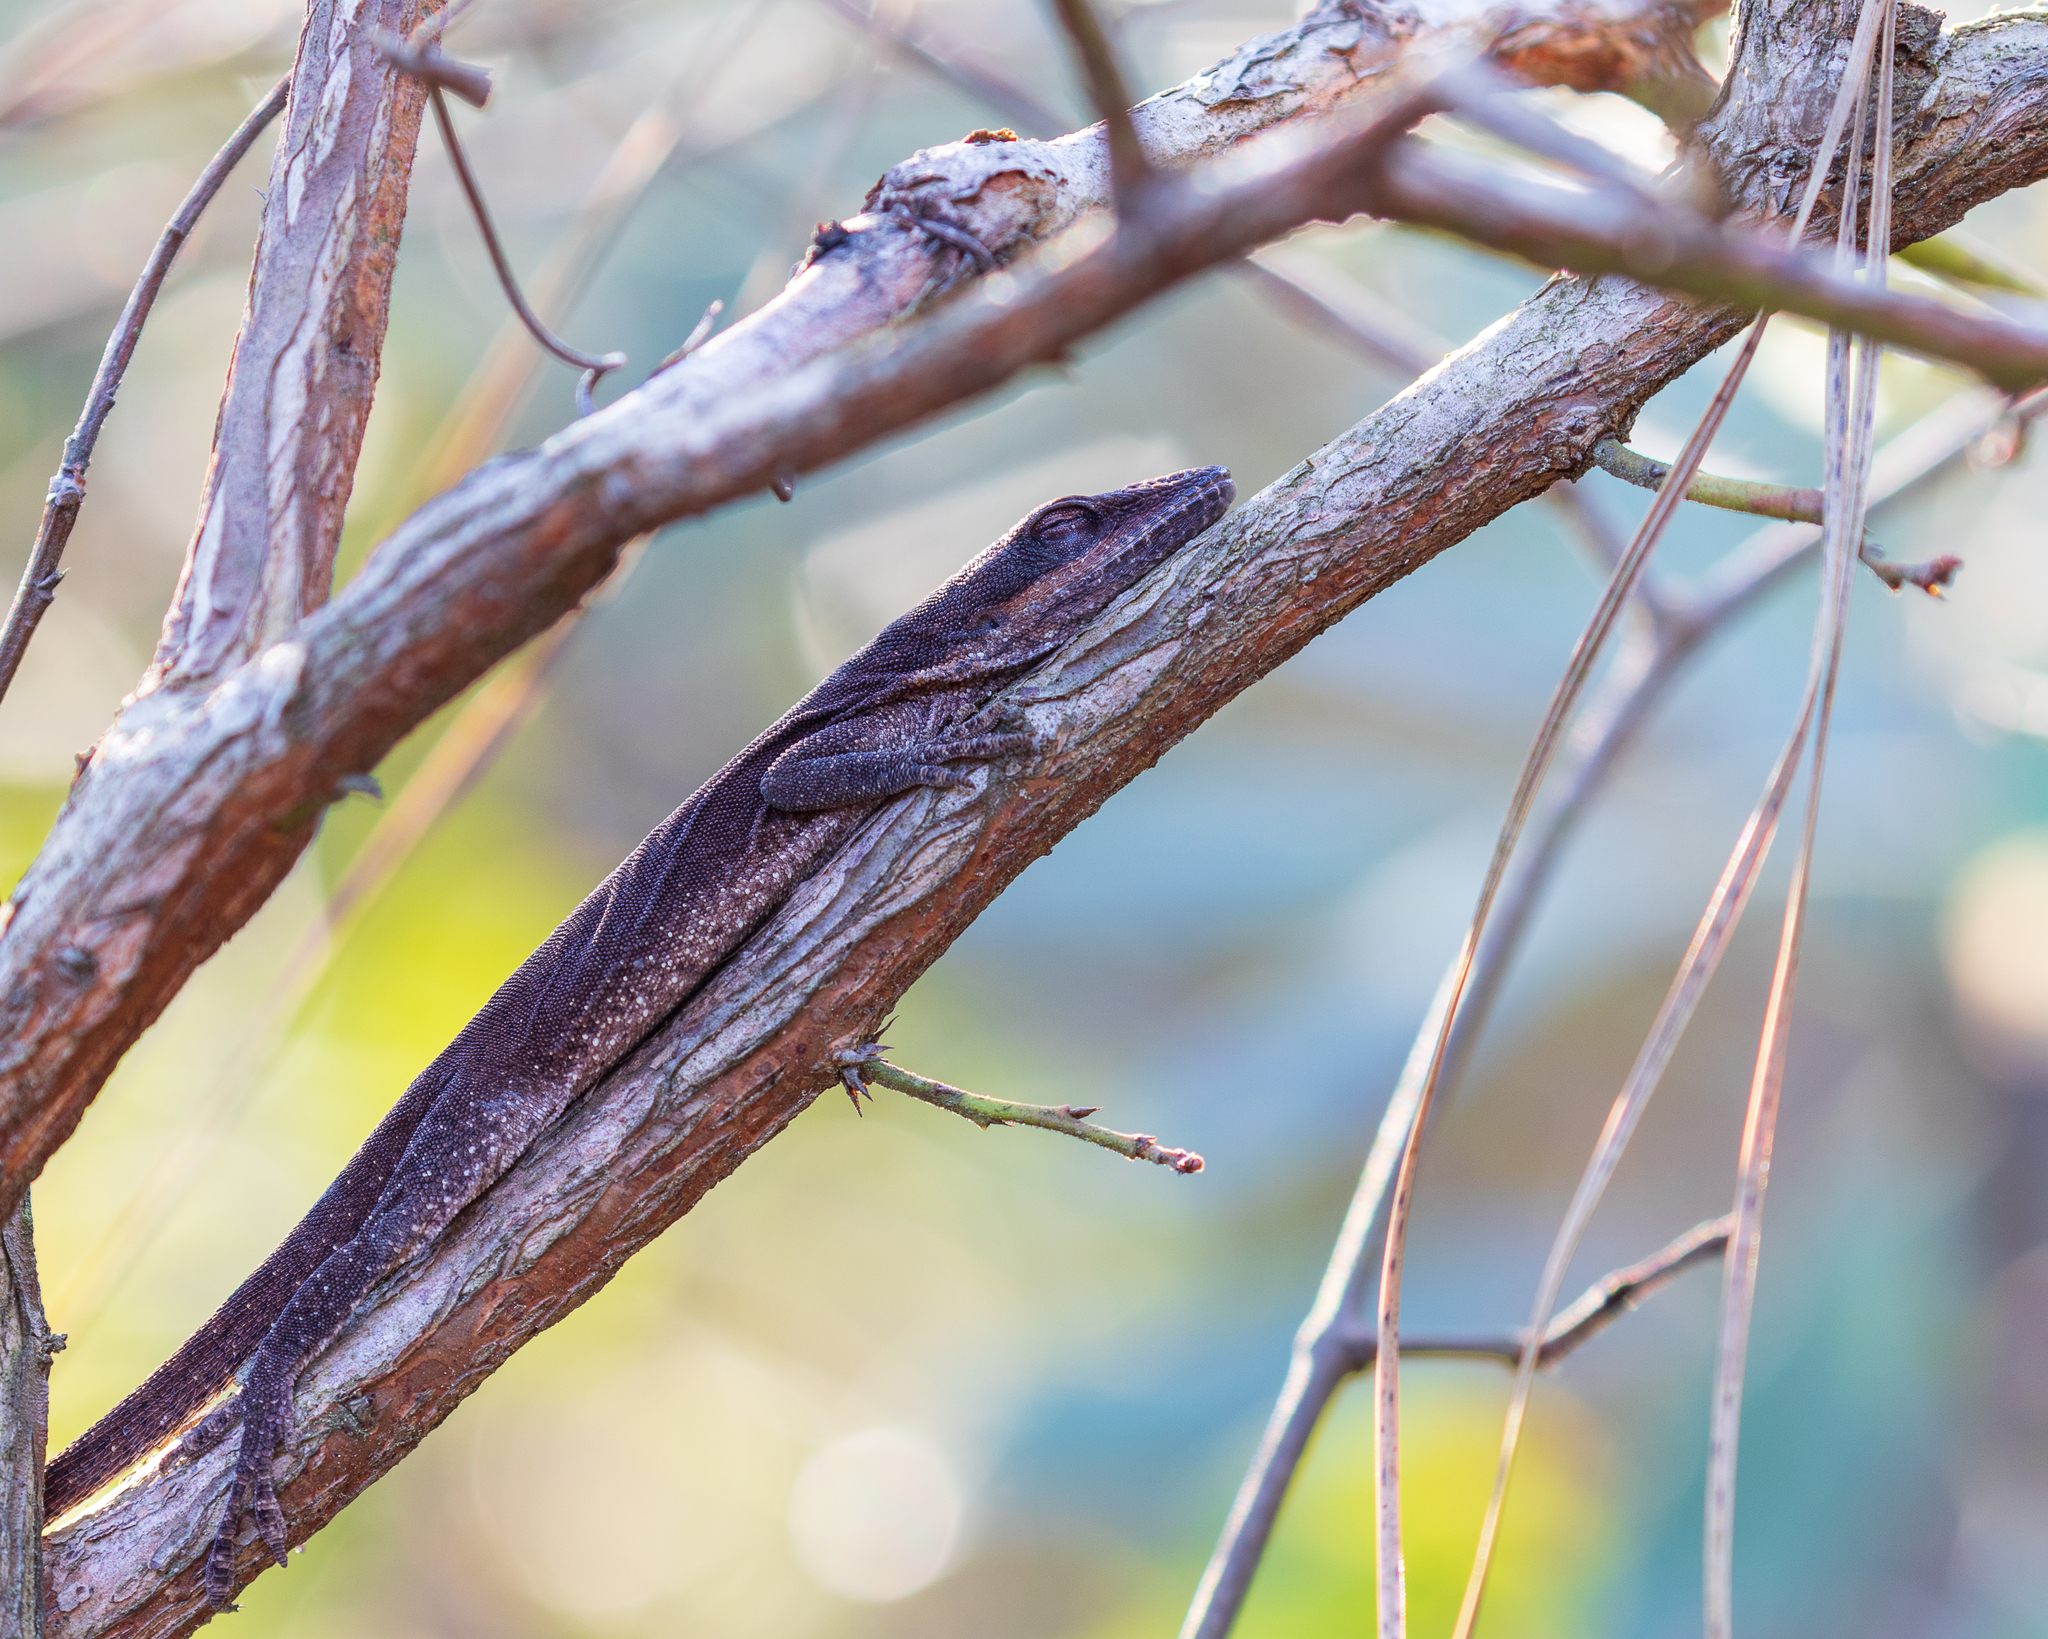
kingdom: Animalia
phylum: Chordata
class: Squamata
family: Dactyloidae
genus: Anolis
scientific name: Anolis carolinensis
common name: Green anole
